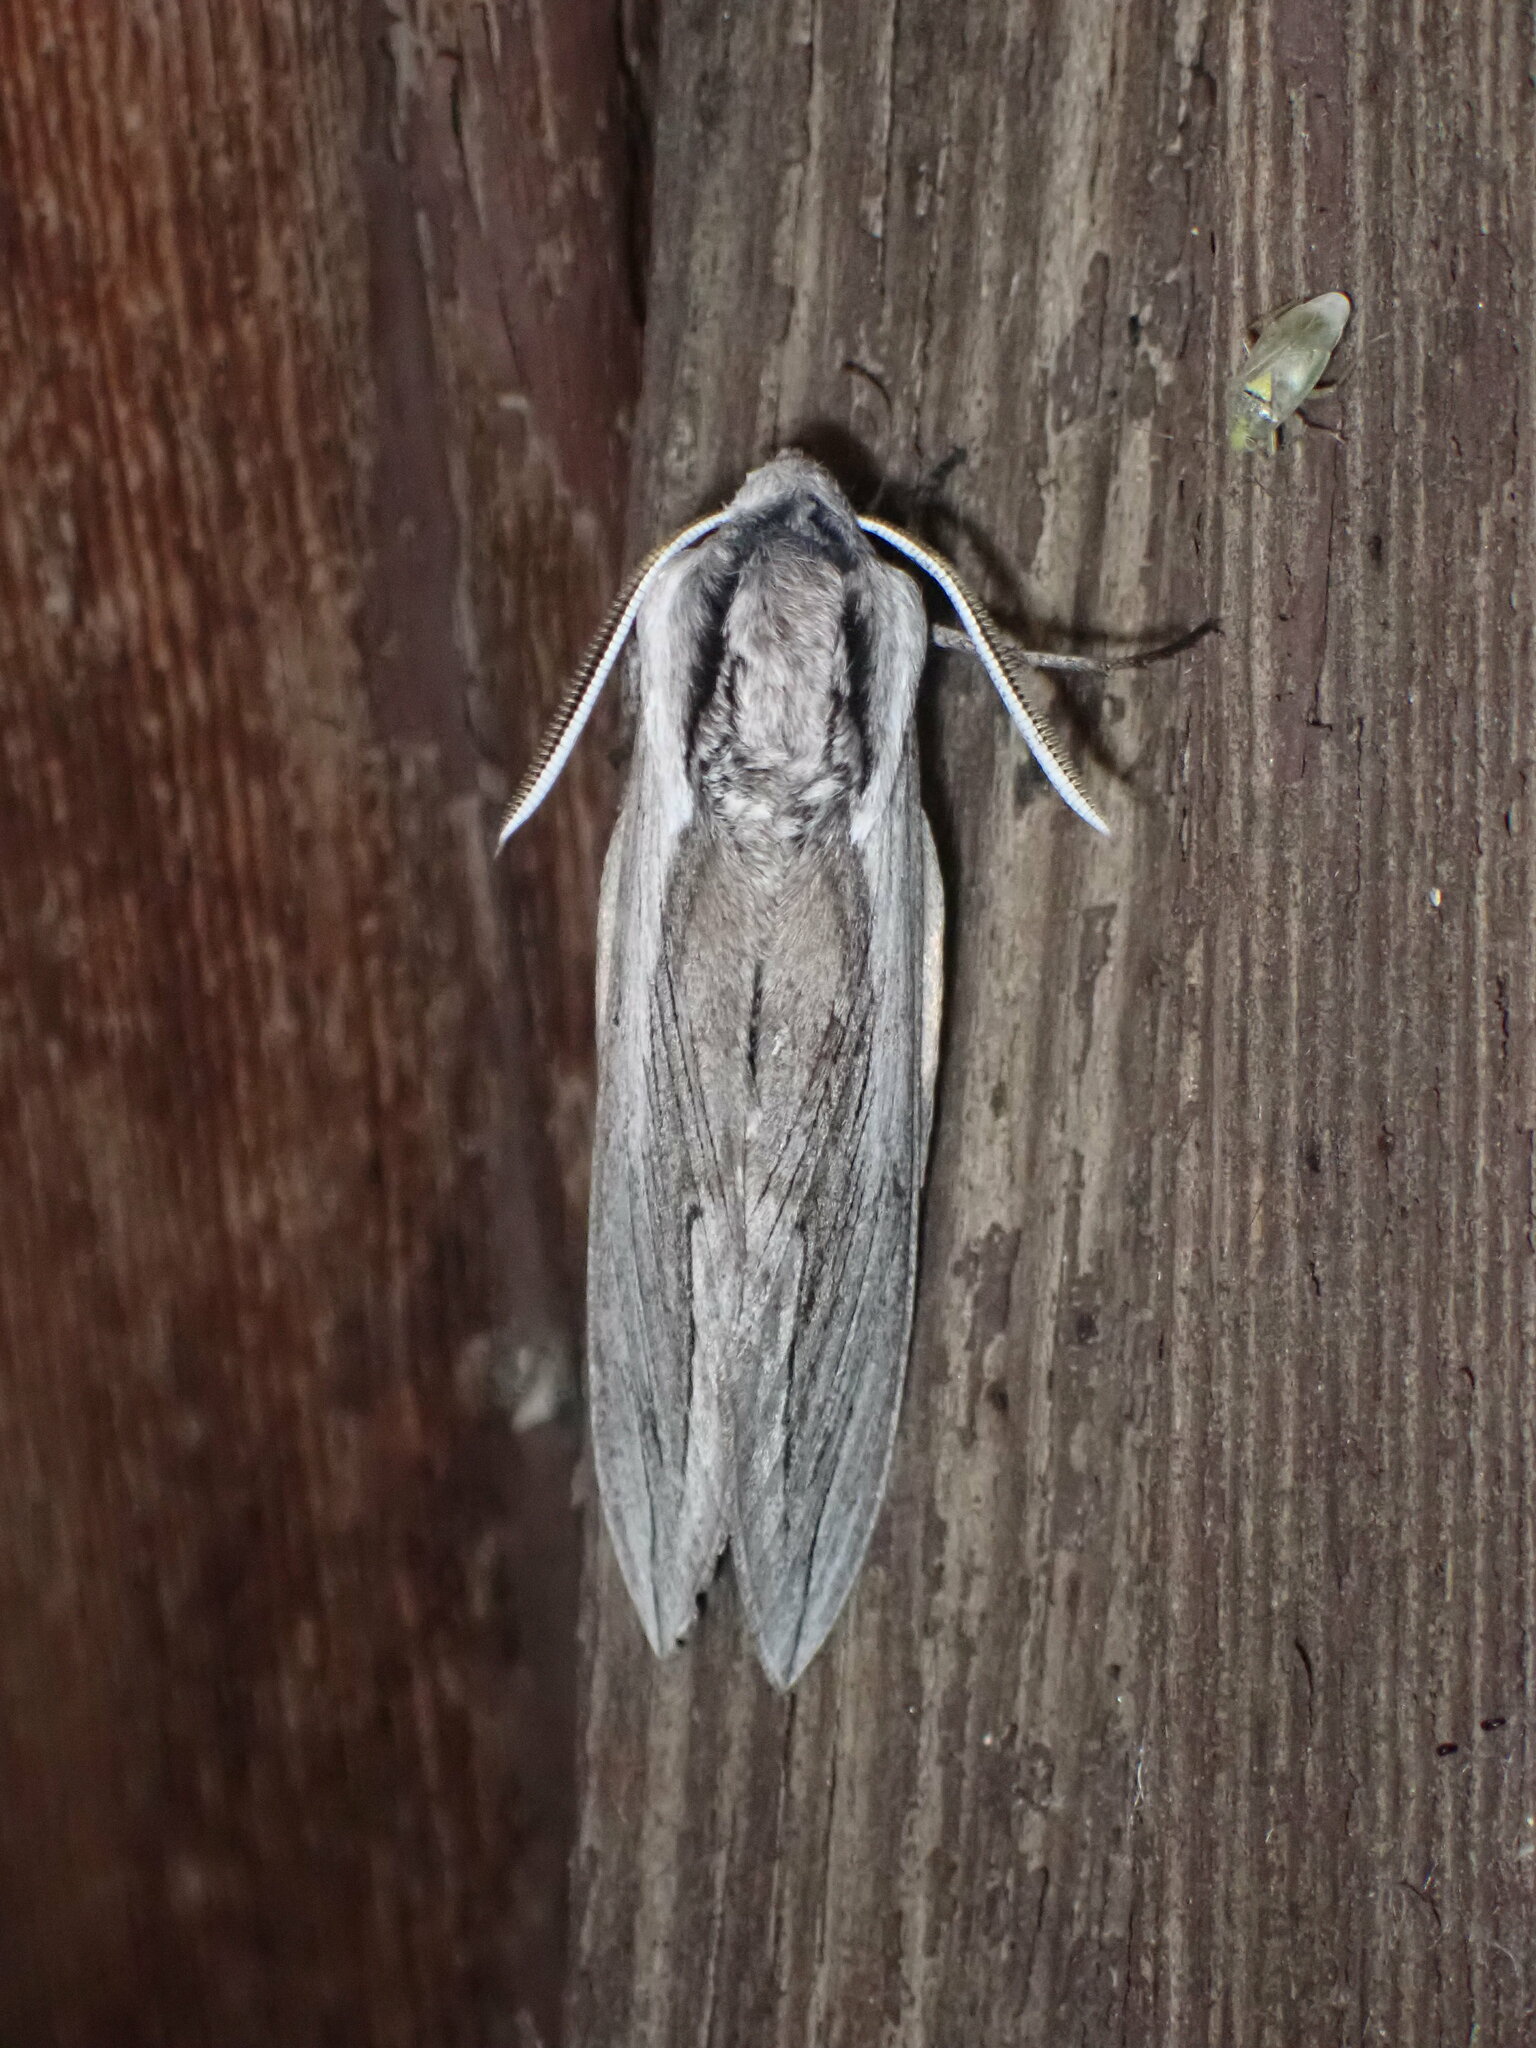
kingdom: Animalia
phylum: Arthropoda
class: Insecta
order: Lepidoptera
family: Sphingidae
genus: Sphinx
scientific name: Sphinx vashti
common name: Snowberry sphinx
